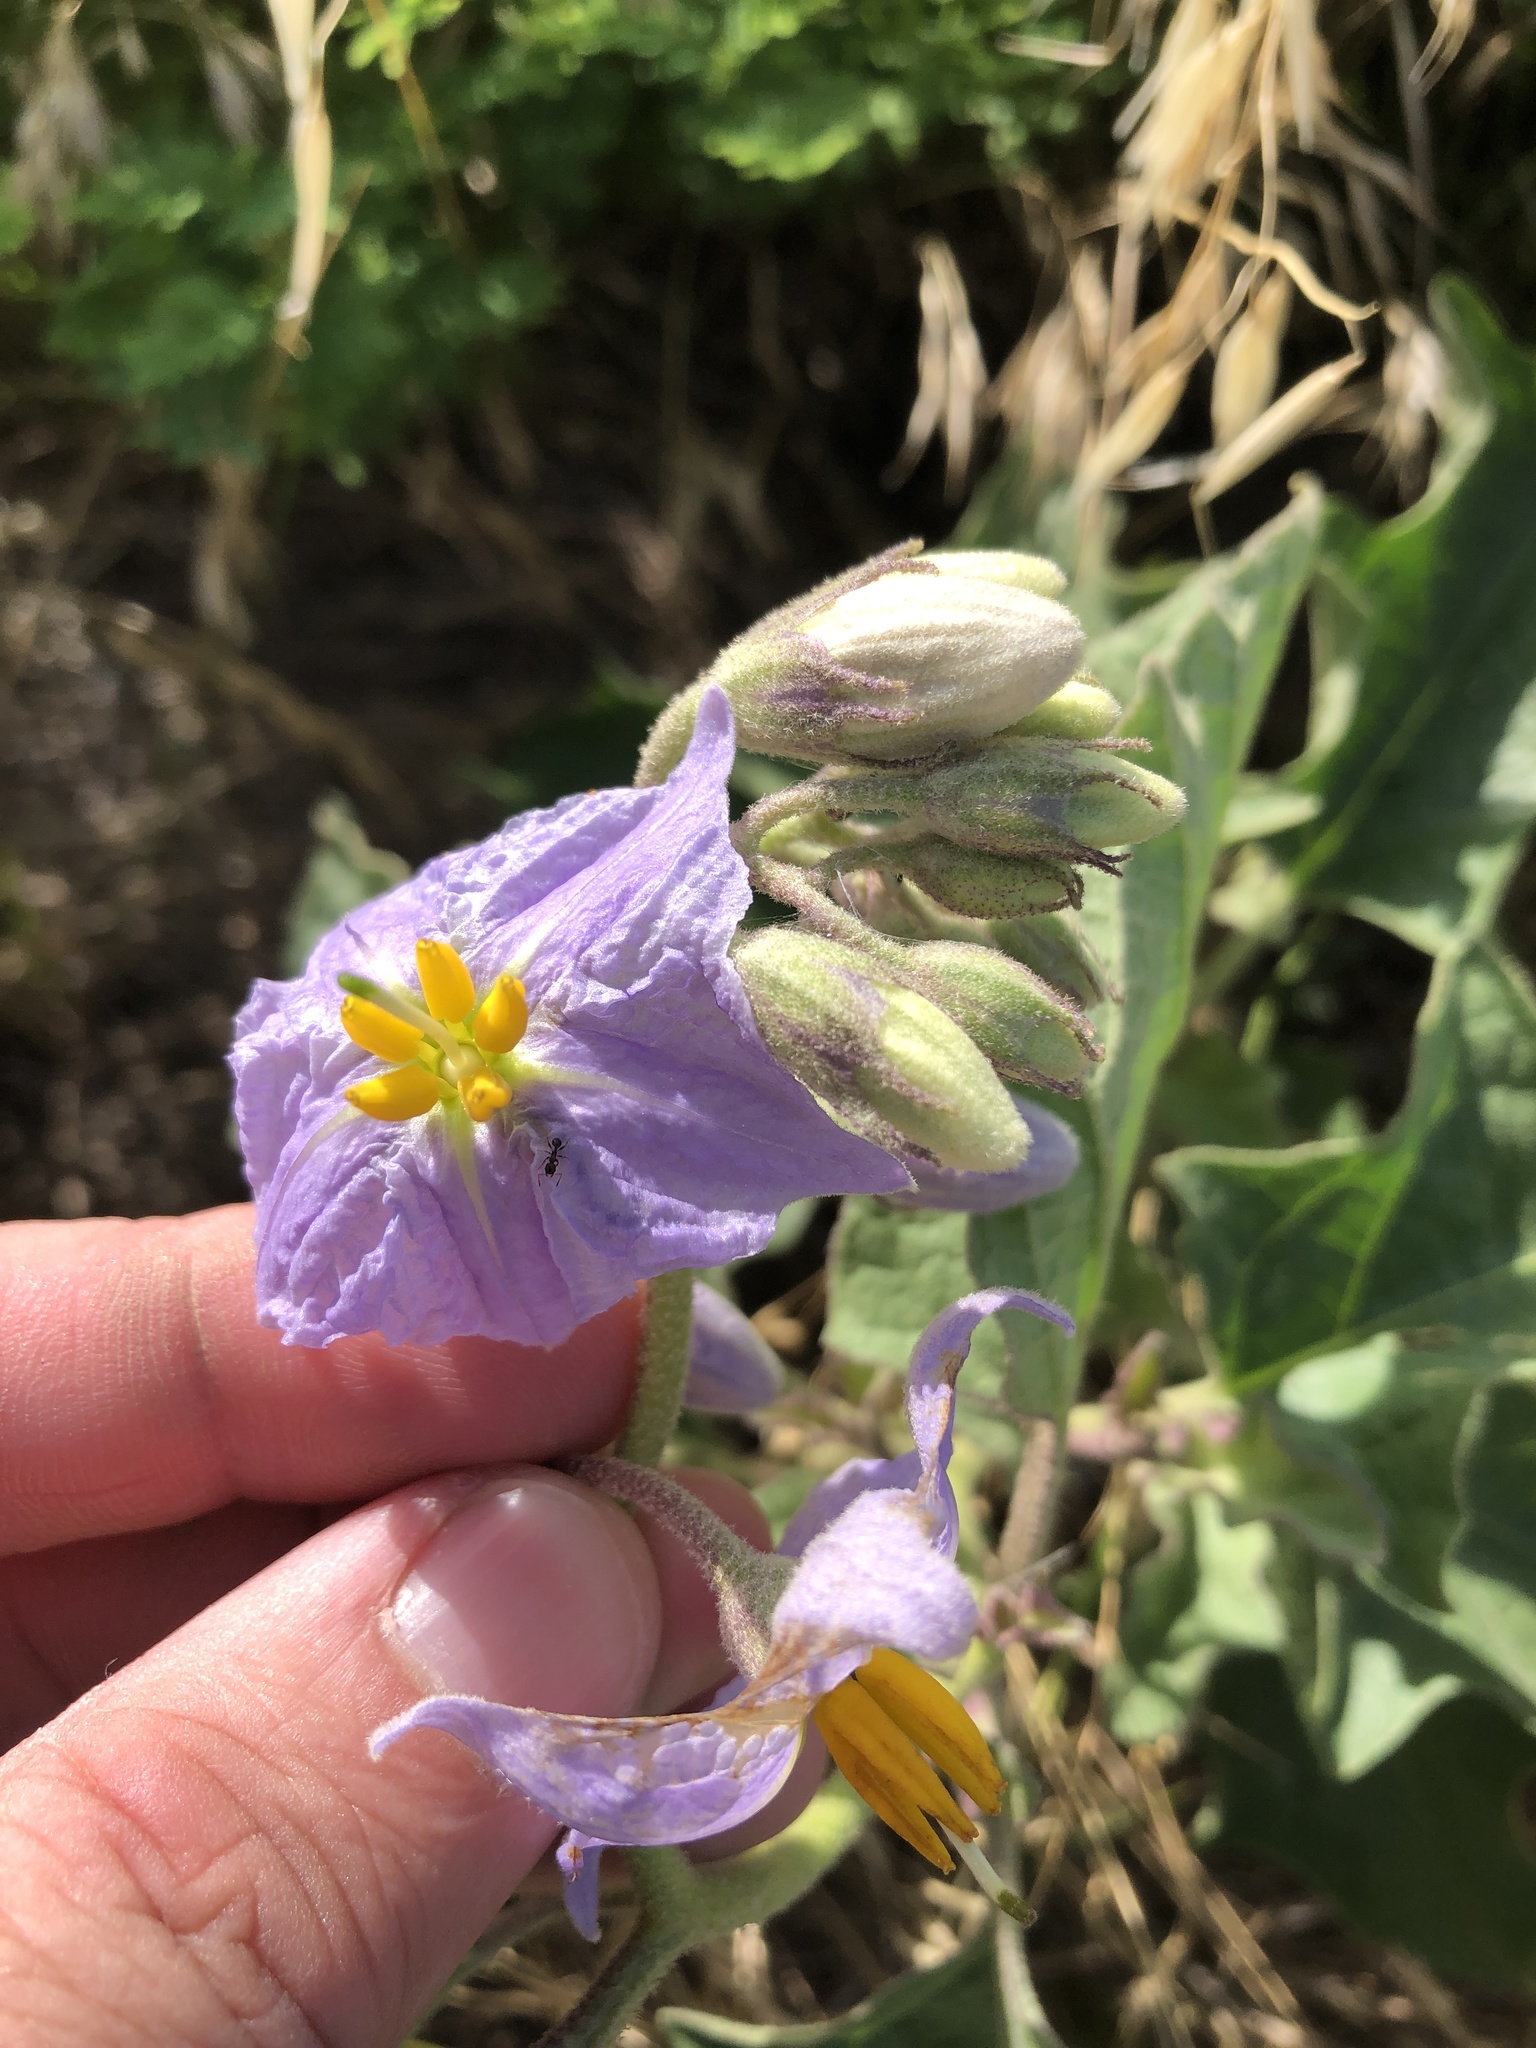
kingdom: Plantae
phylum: Tracheophyta
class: Magnoliopsida
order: Solanales
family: Solanaceae
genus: Solanum
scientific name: Solanum dimidiatum
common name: Carolina horse-nettle
